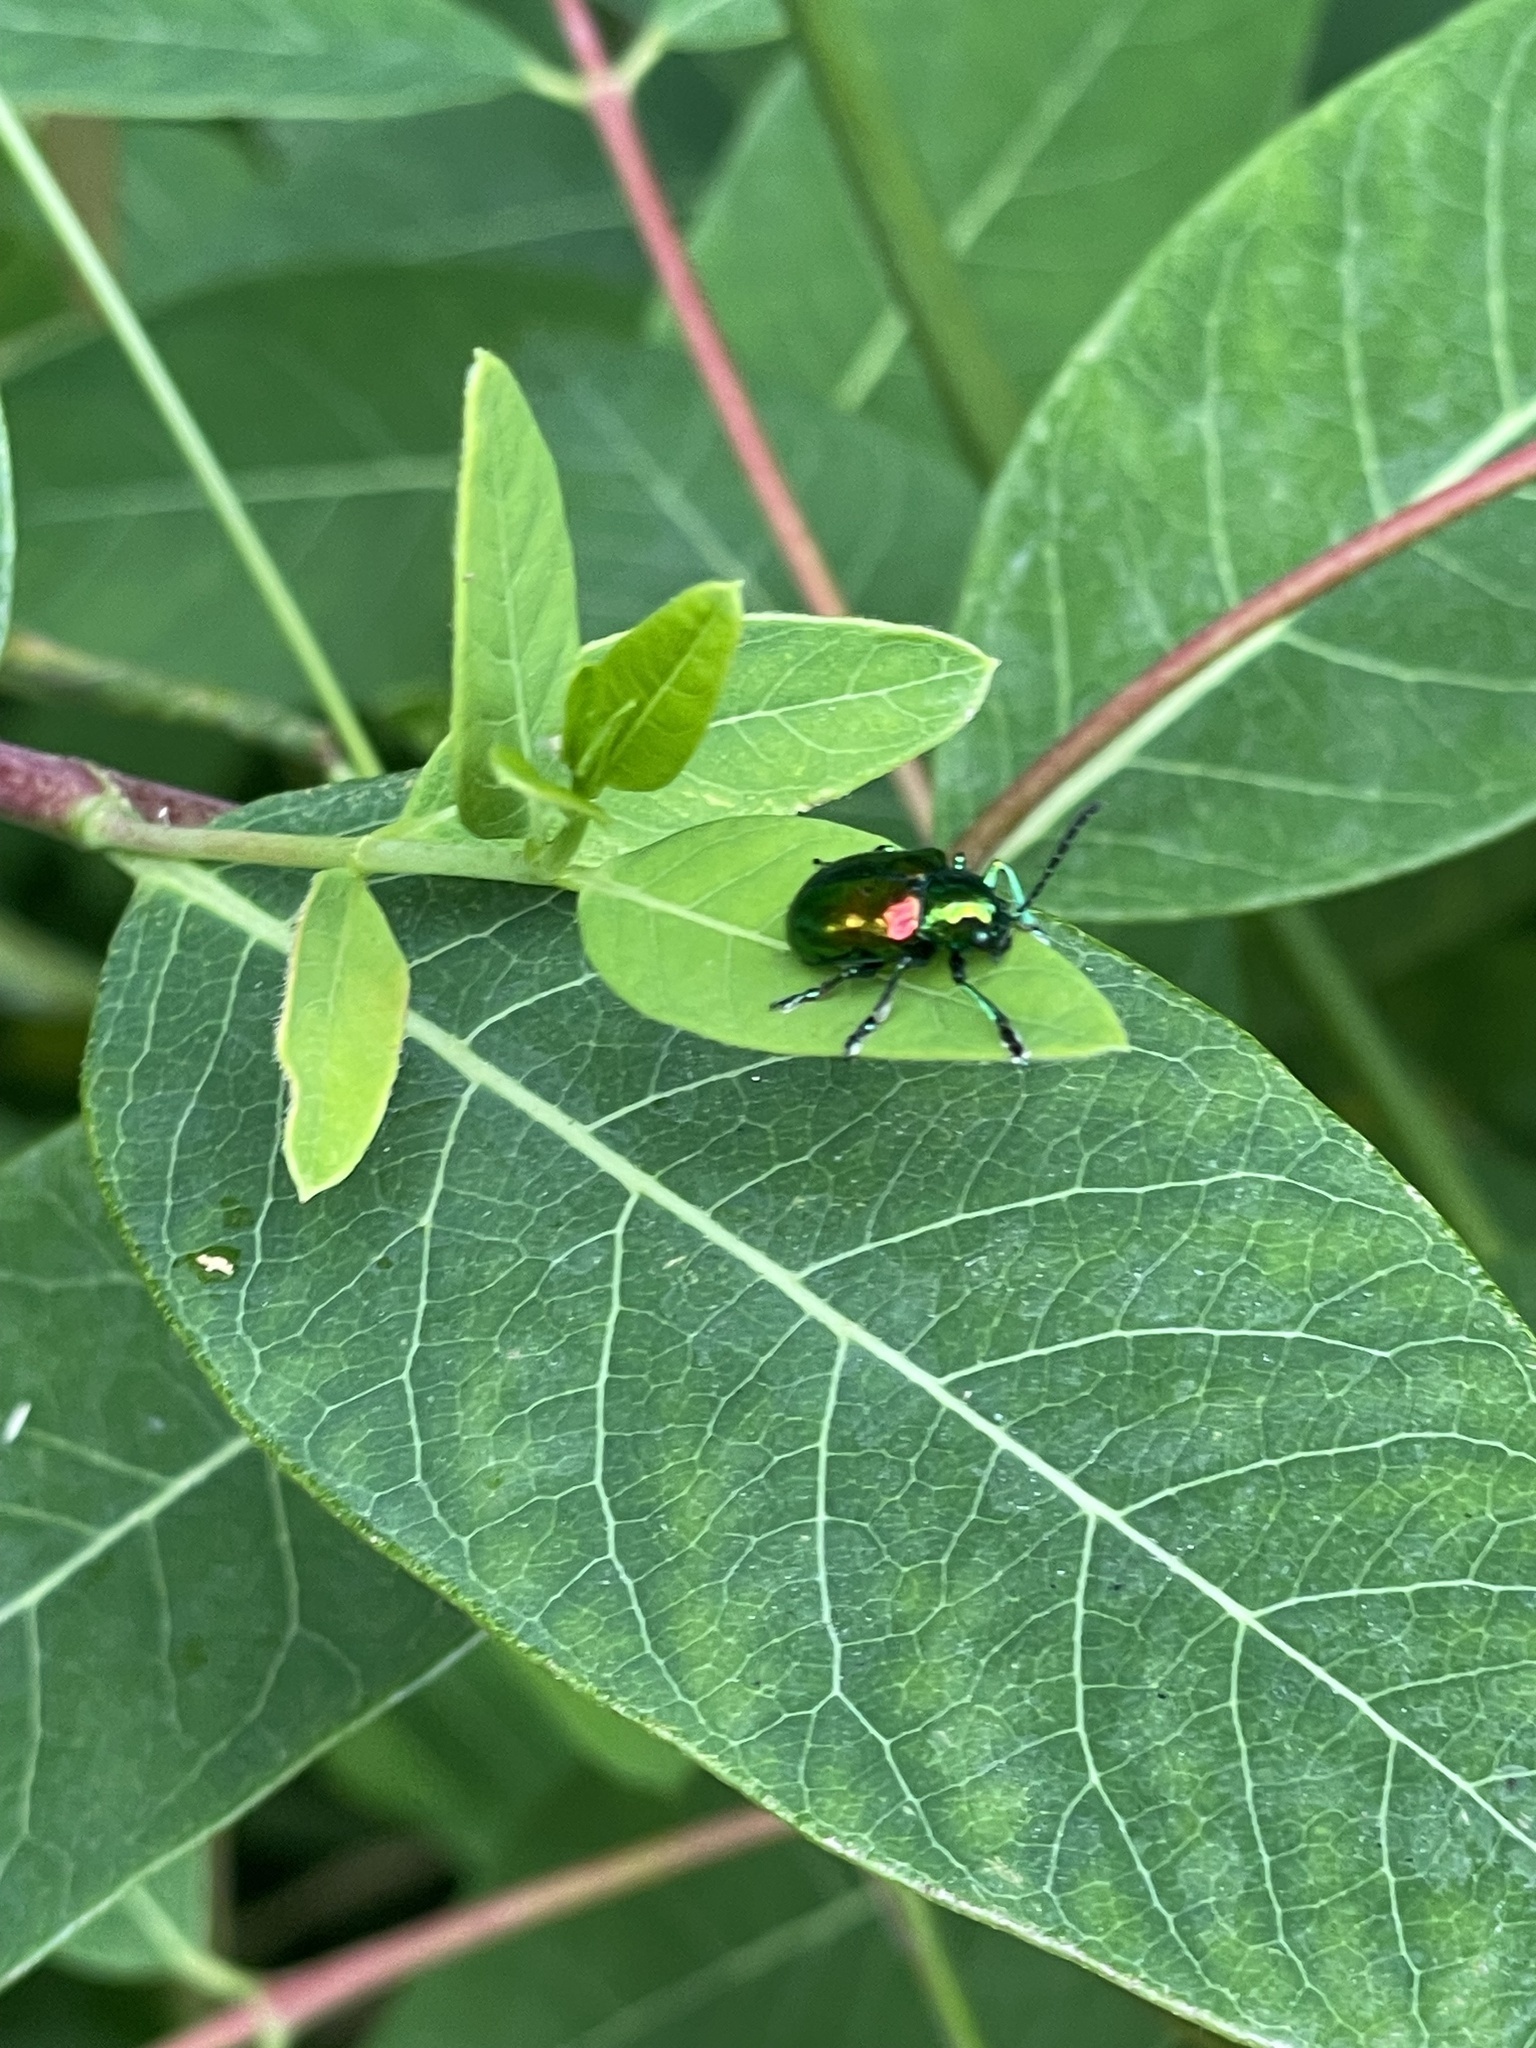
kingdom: Animalia
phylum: Arthropoda
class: Insecta
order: Coleoptera
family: Chrysomelidae
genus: Chrysochus
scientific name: Chrysochus auratus
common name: Dogbane leaf beetle
